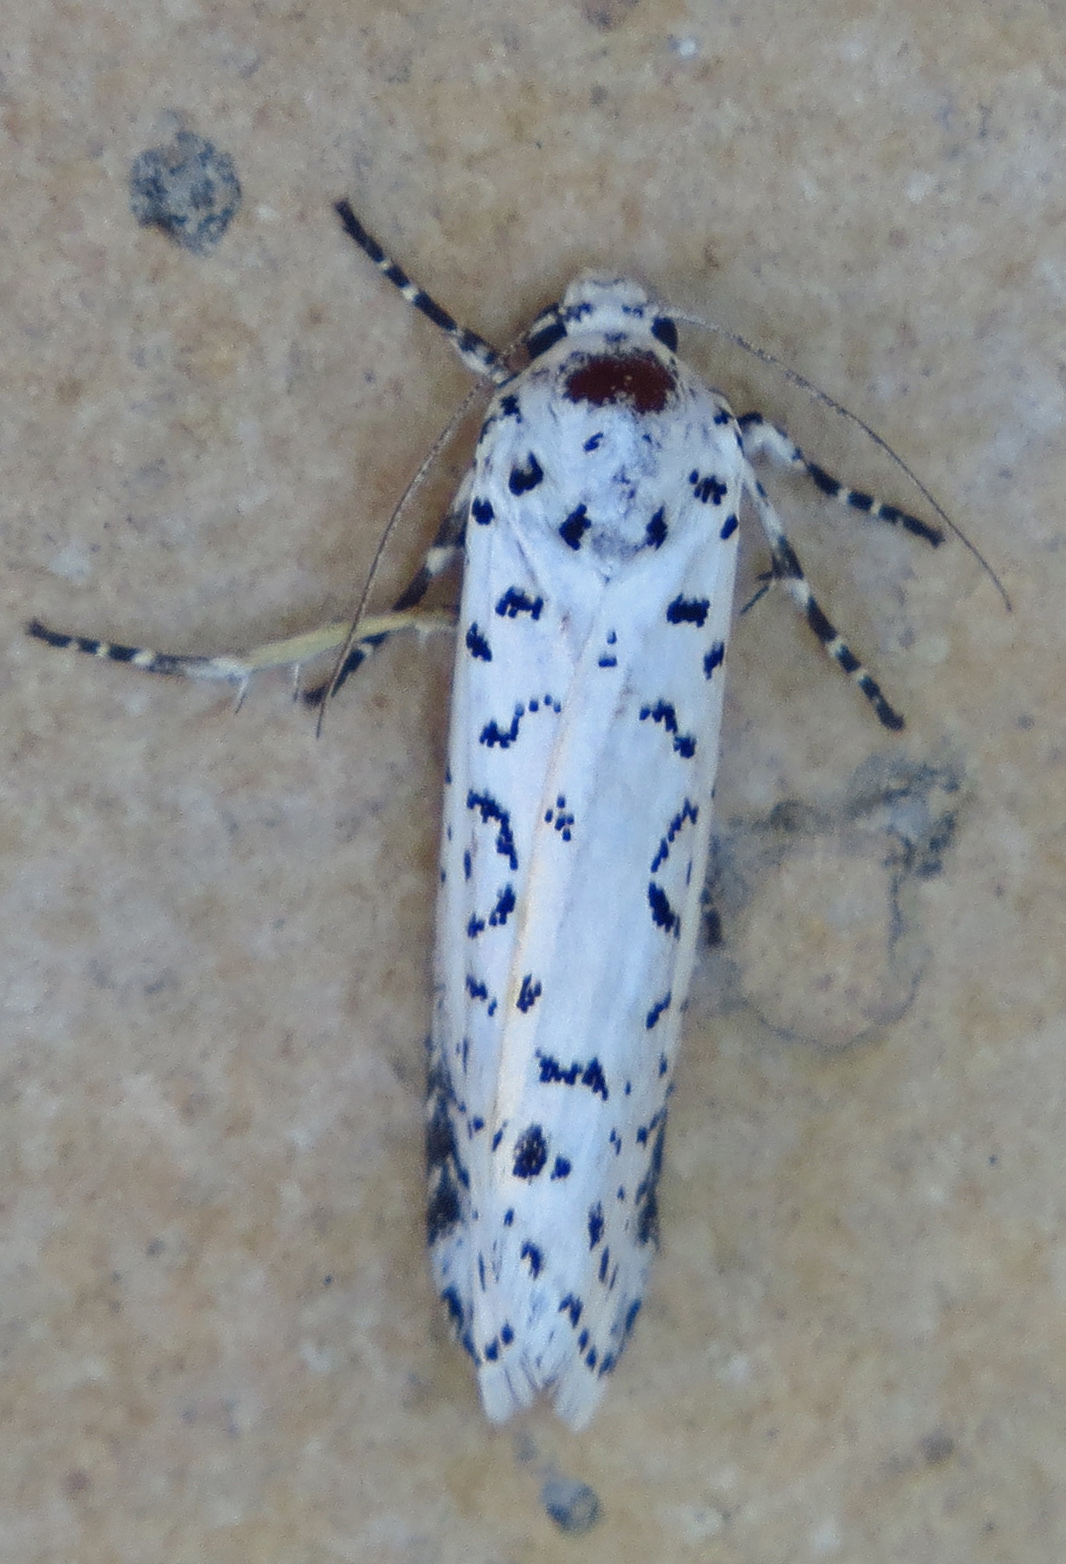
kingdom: Animalia
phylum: Arthropoda
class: Insecta
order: Lepidoptera
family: Noctuidae
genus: Cerathosia
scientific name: Cerathosia tricolor
